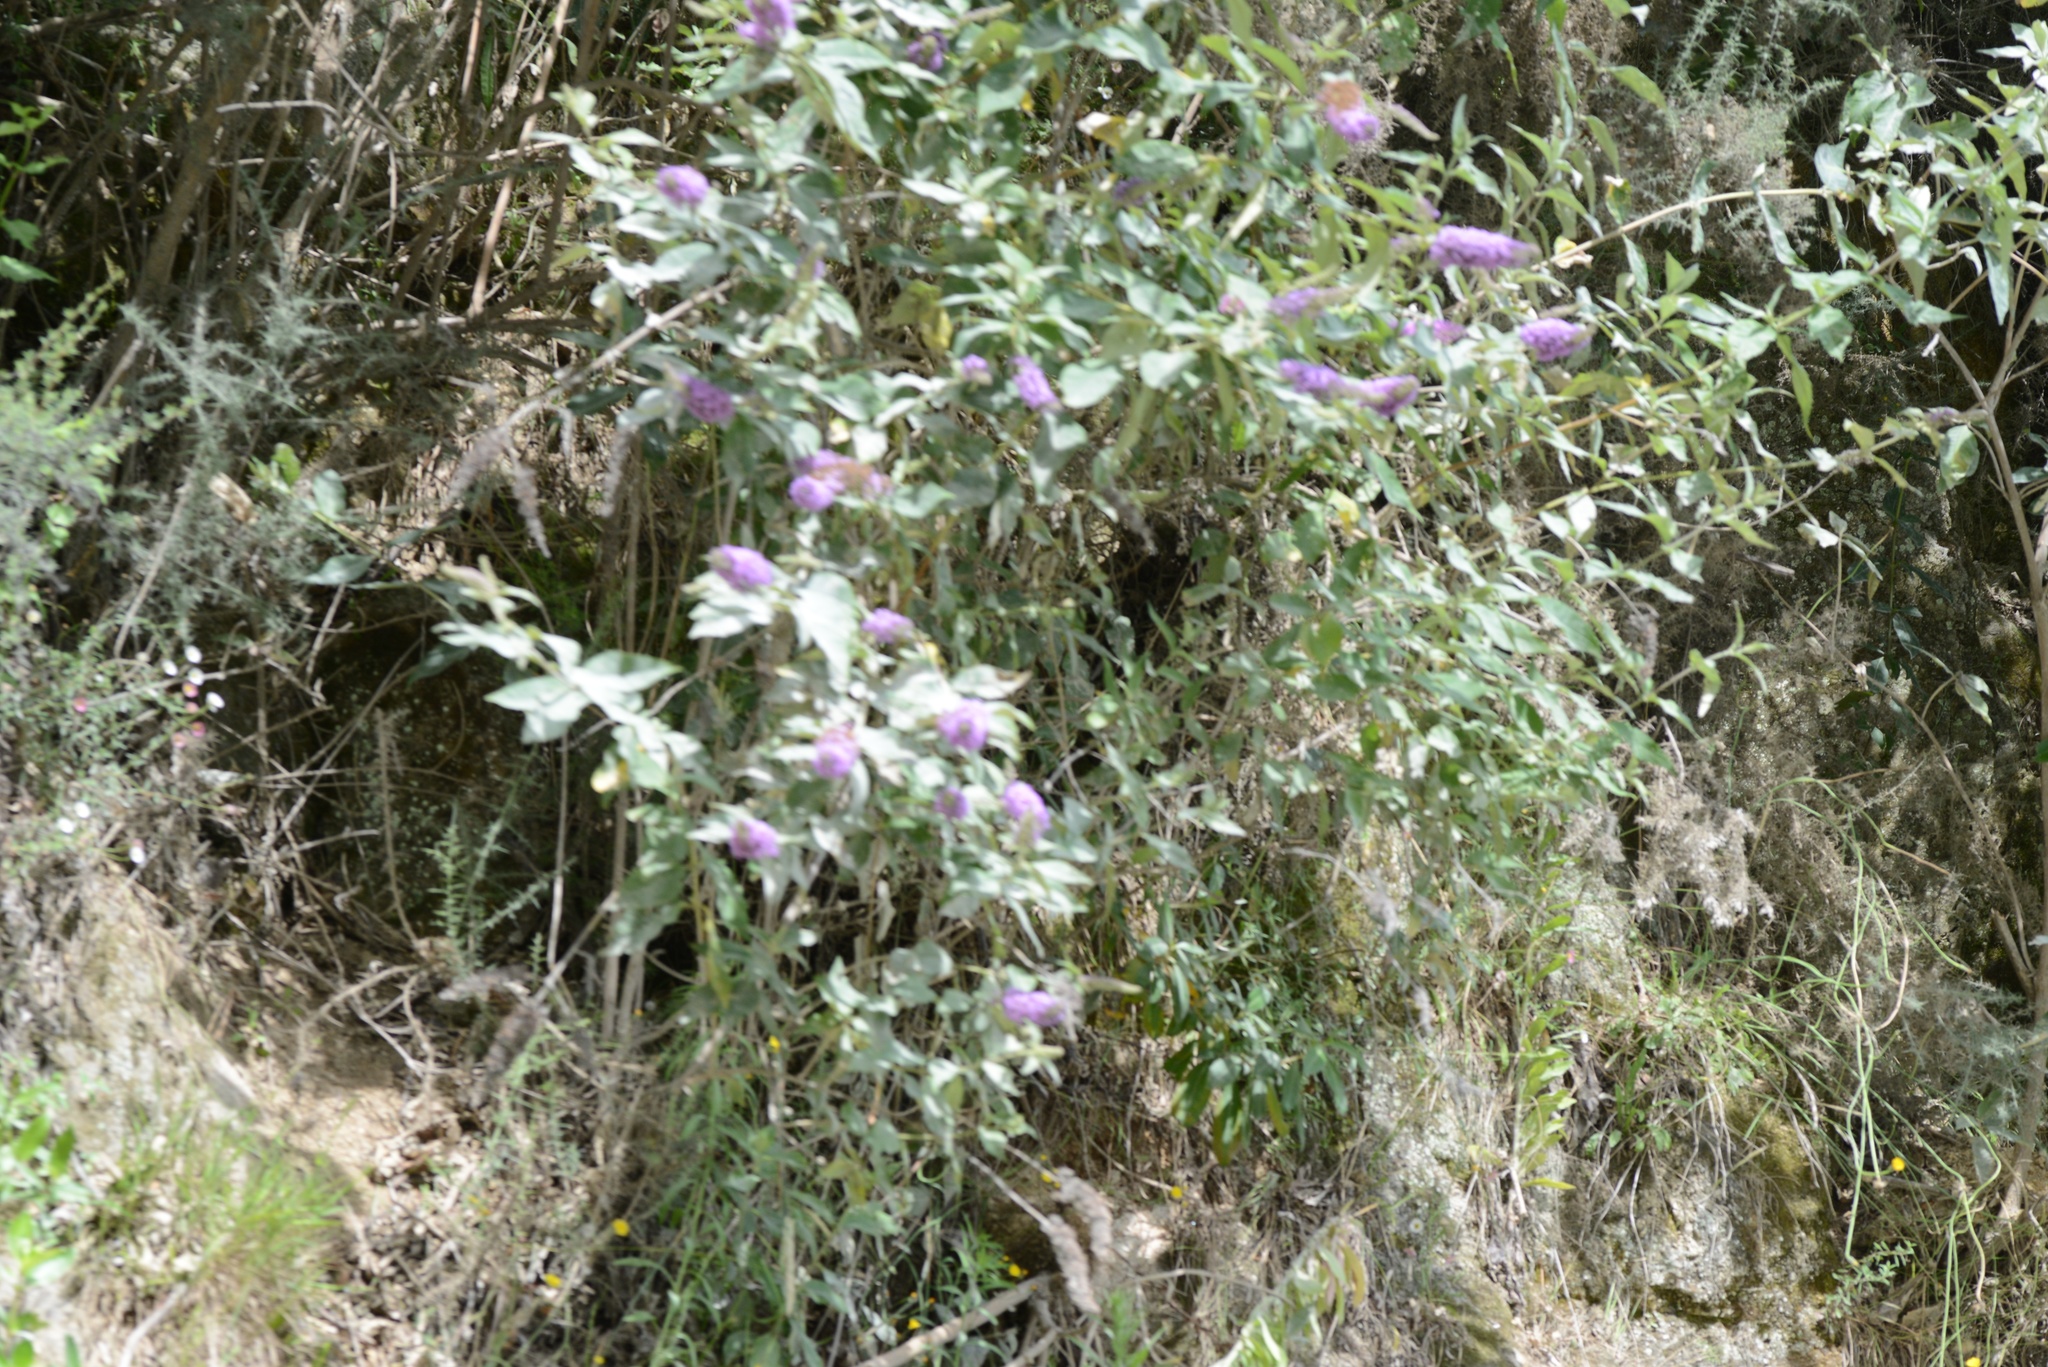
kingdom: Plantae
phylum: Tracheophyta
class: Magnoliopsida
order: Lamiales
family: Scrophulariaceae
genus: Buddleja
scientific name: Buddleja davidii
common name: Butterfly-bush
